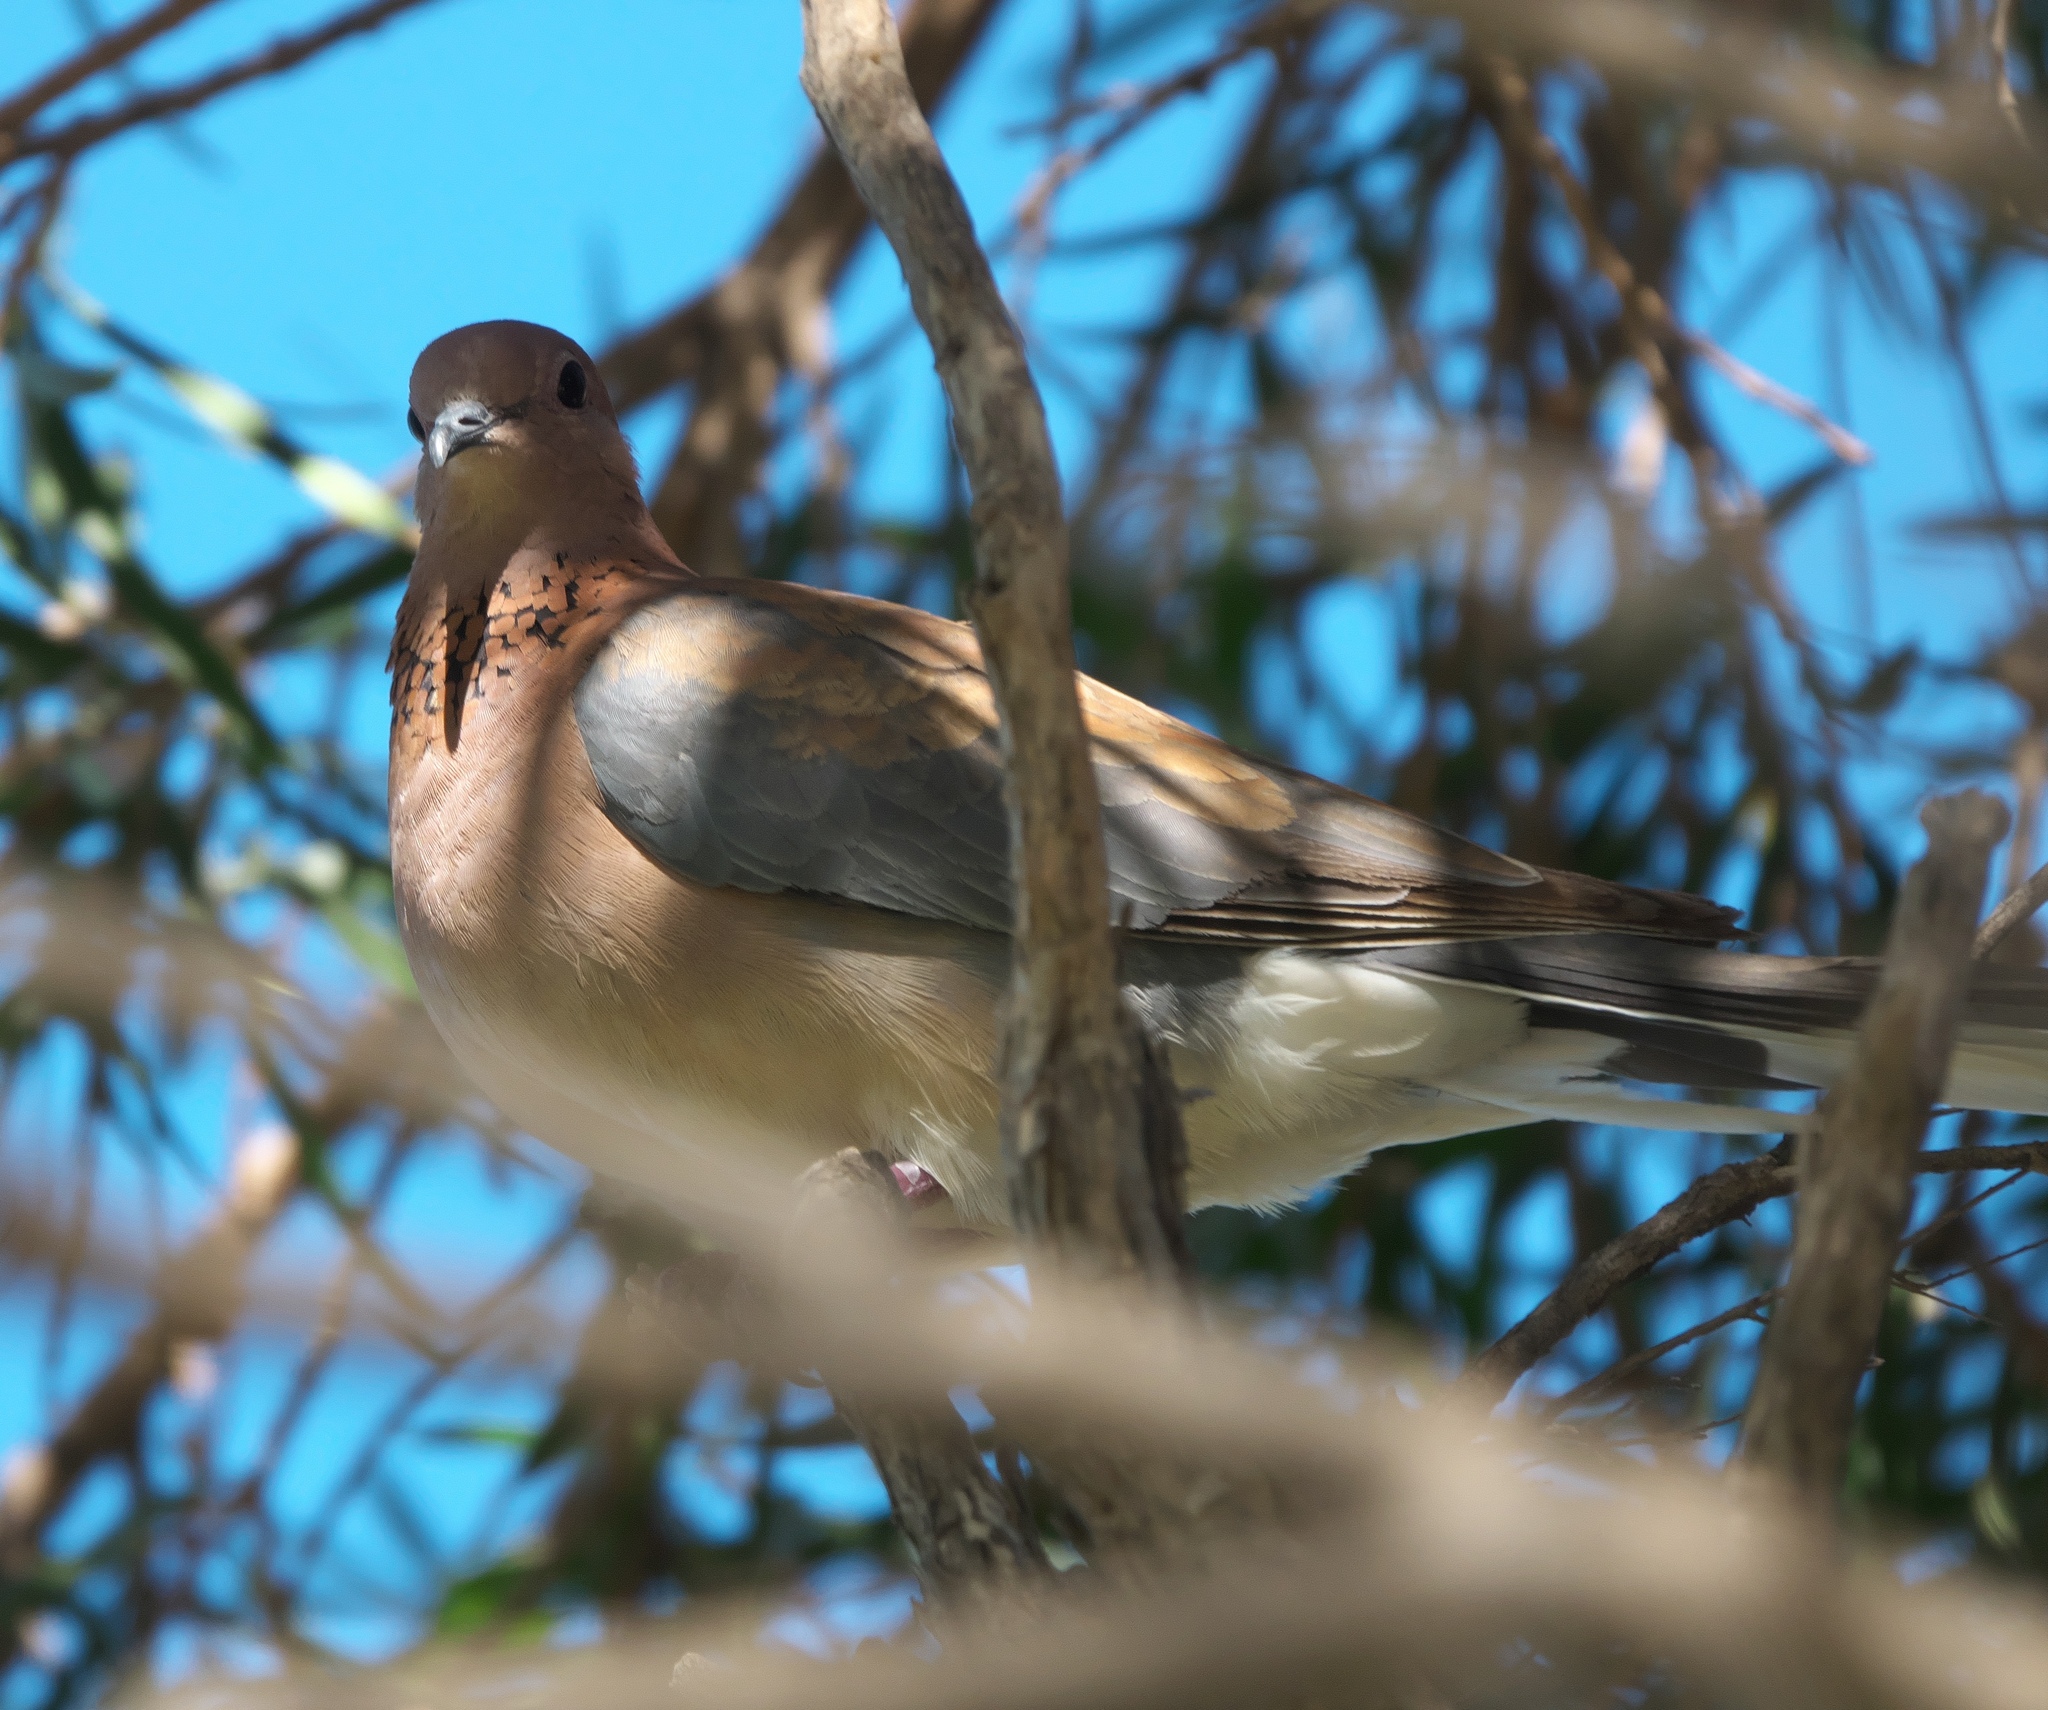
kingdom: Animalia
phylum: Chordata
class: Aves
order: Columbiformes
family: Columbidae
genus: Spilopelia
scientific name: Spilopelia senegalensis
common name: Laughing dove
